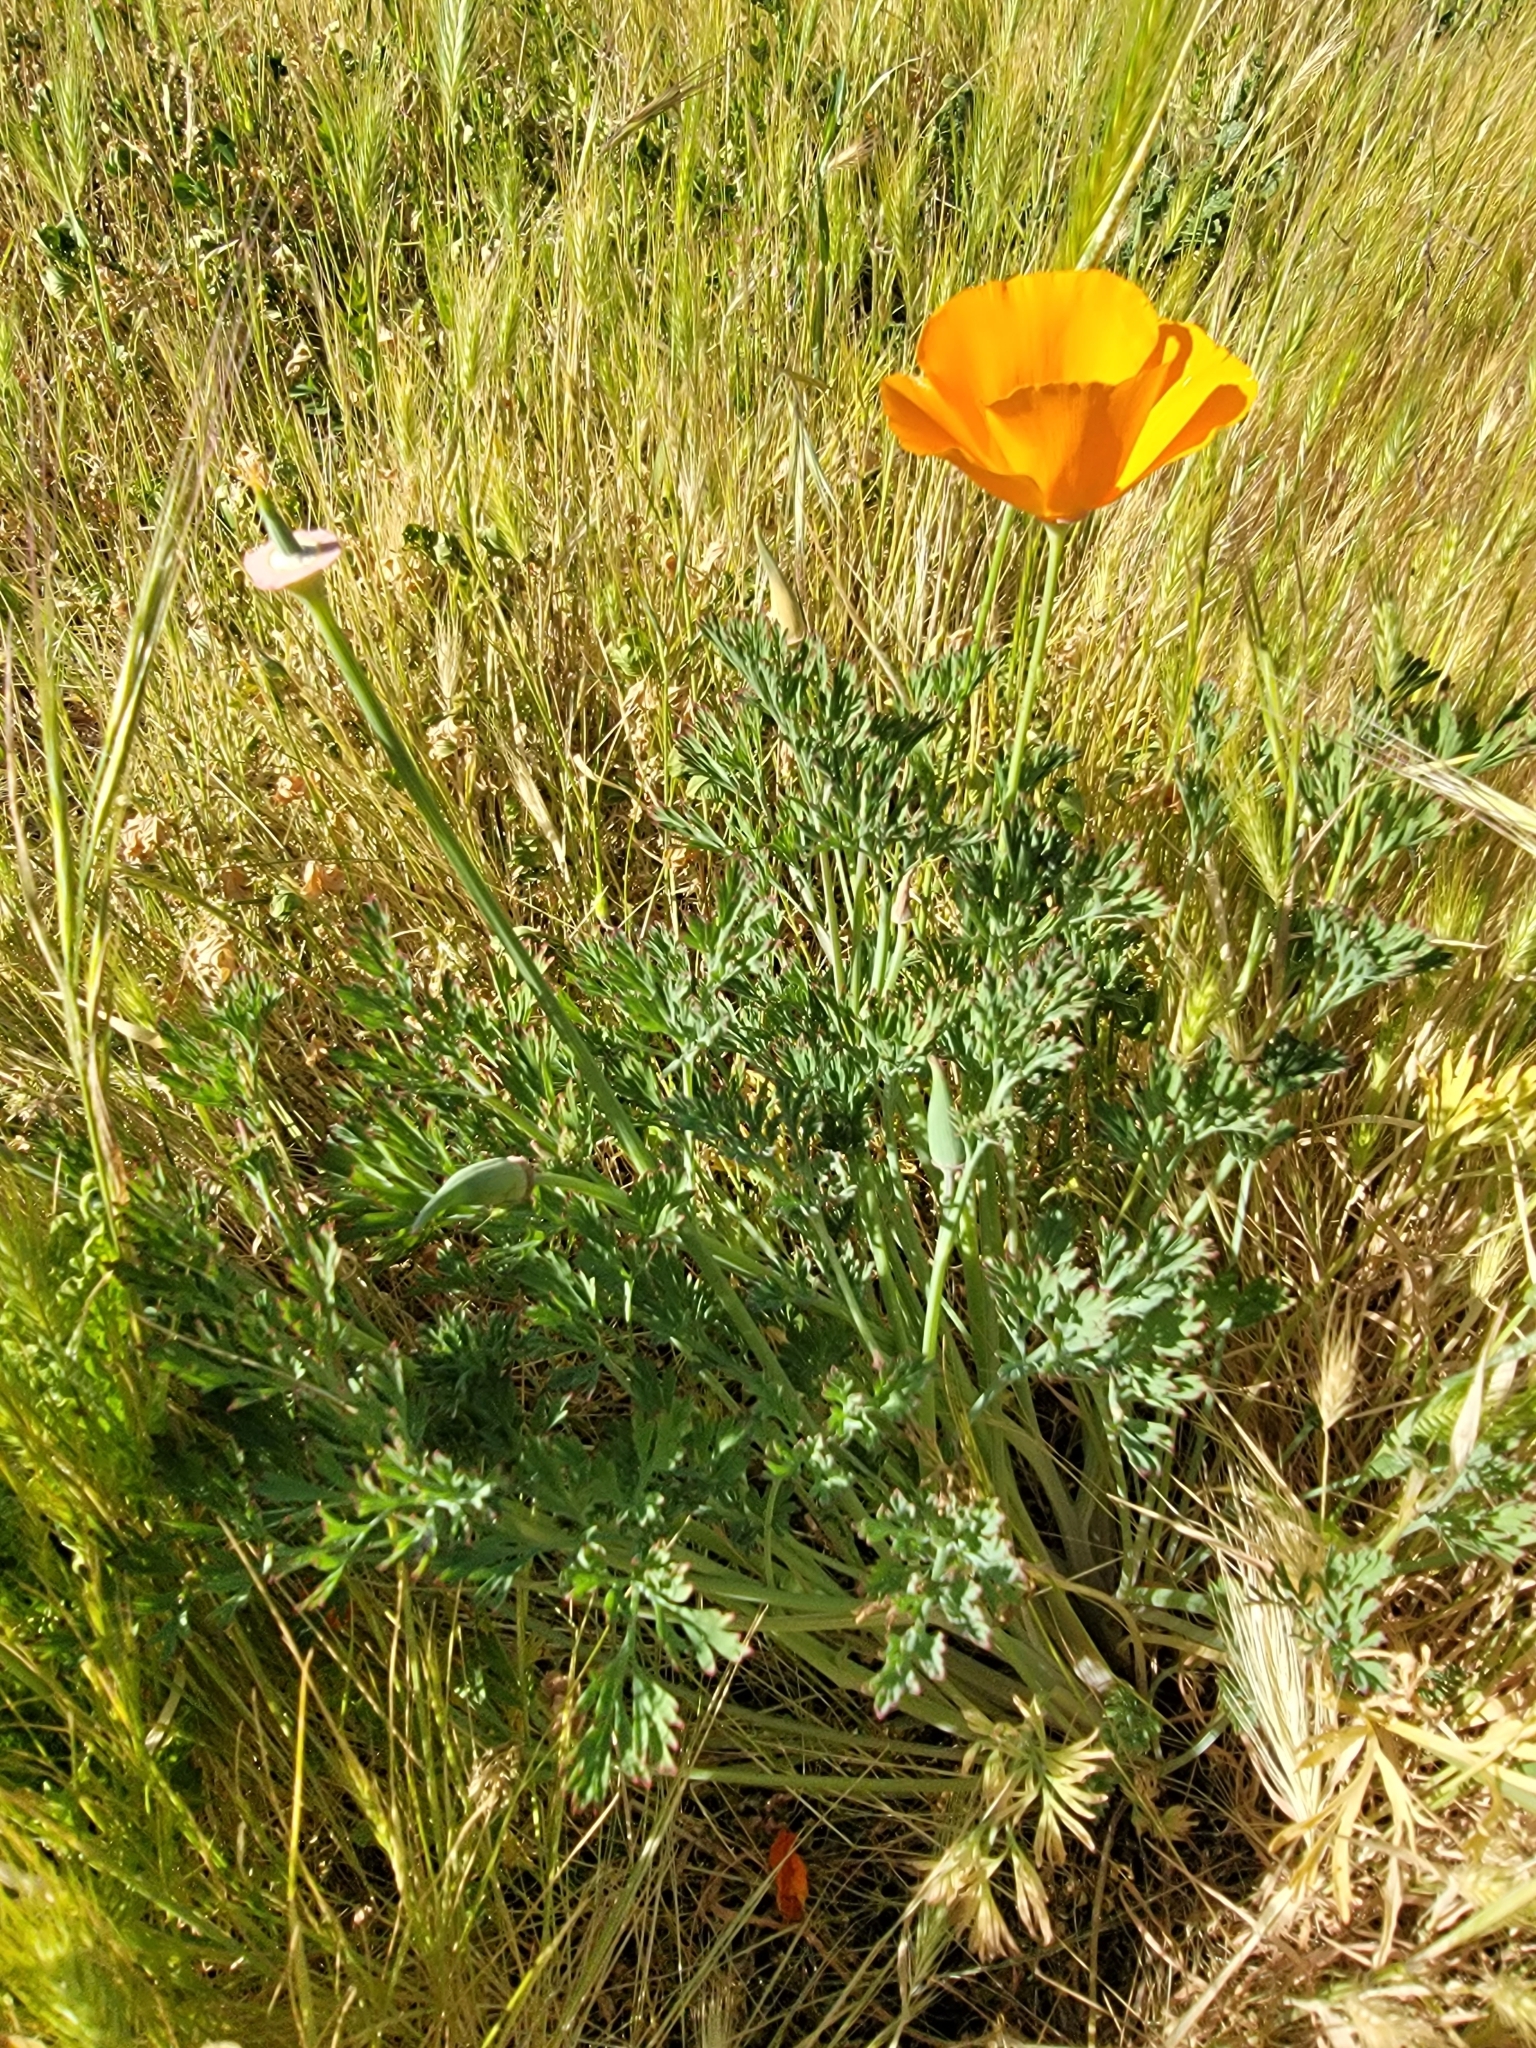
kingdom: Plantae
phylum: Tracheophyta
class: Magnoliopsida
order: Ranunculales
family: Papaveraceae
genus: Eschscholzia
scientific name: Eschscholzia californica
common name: California poppy
